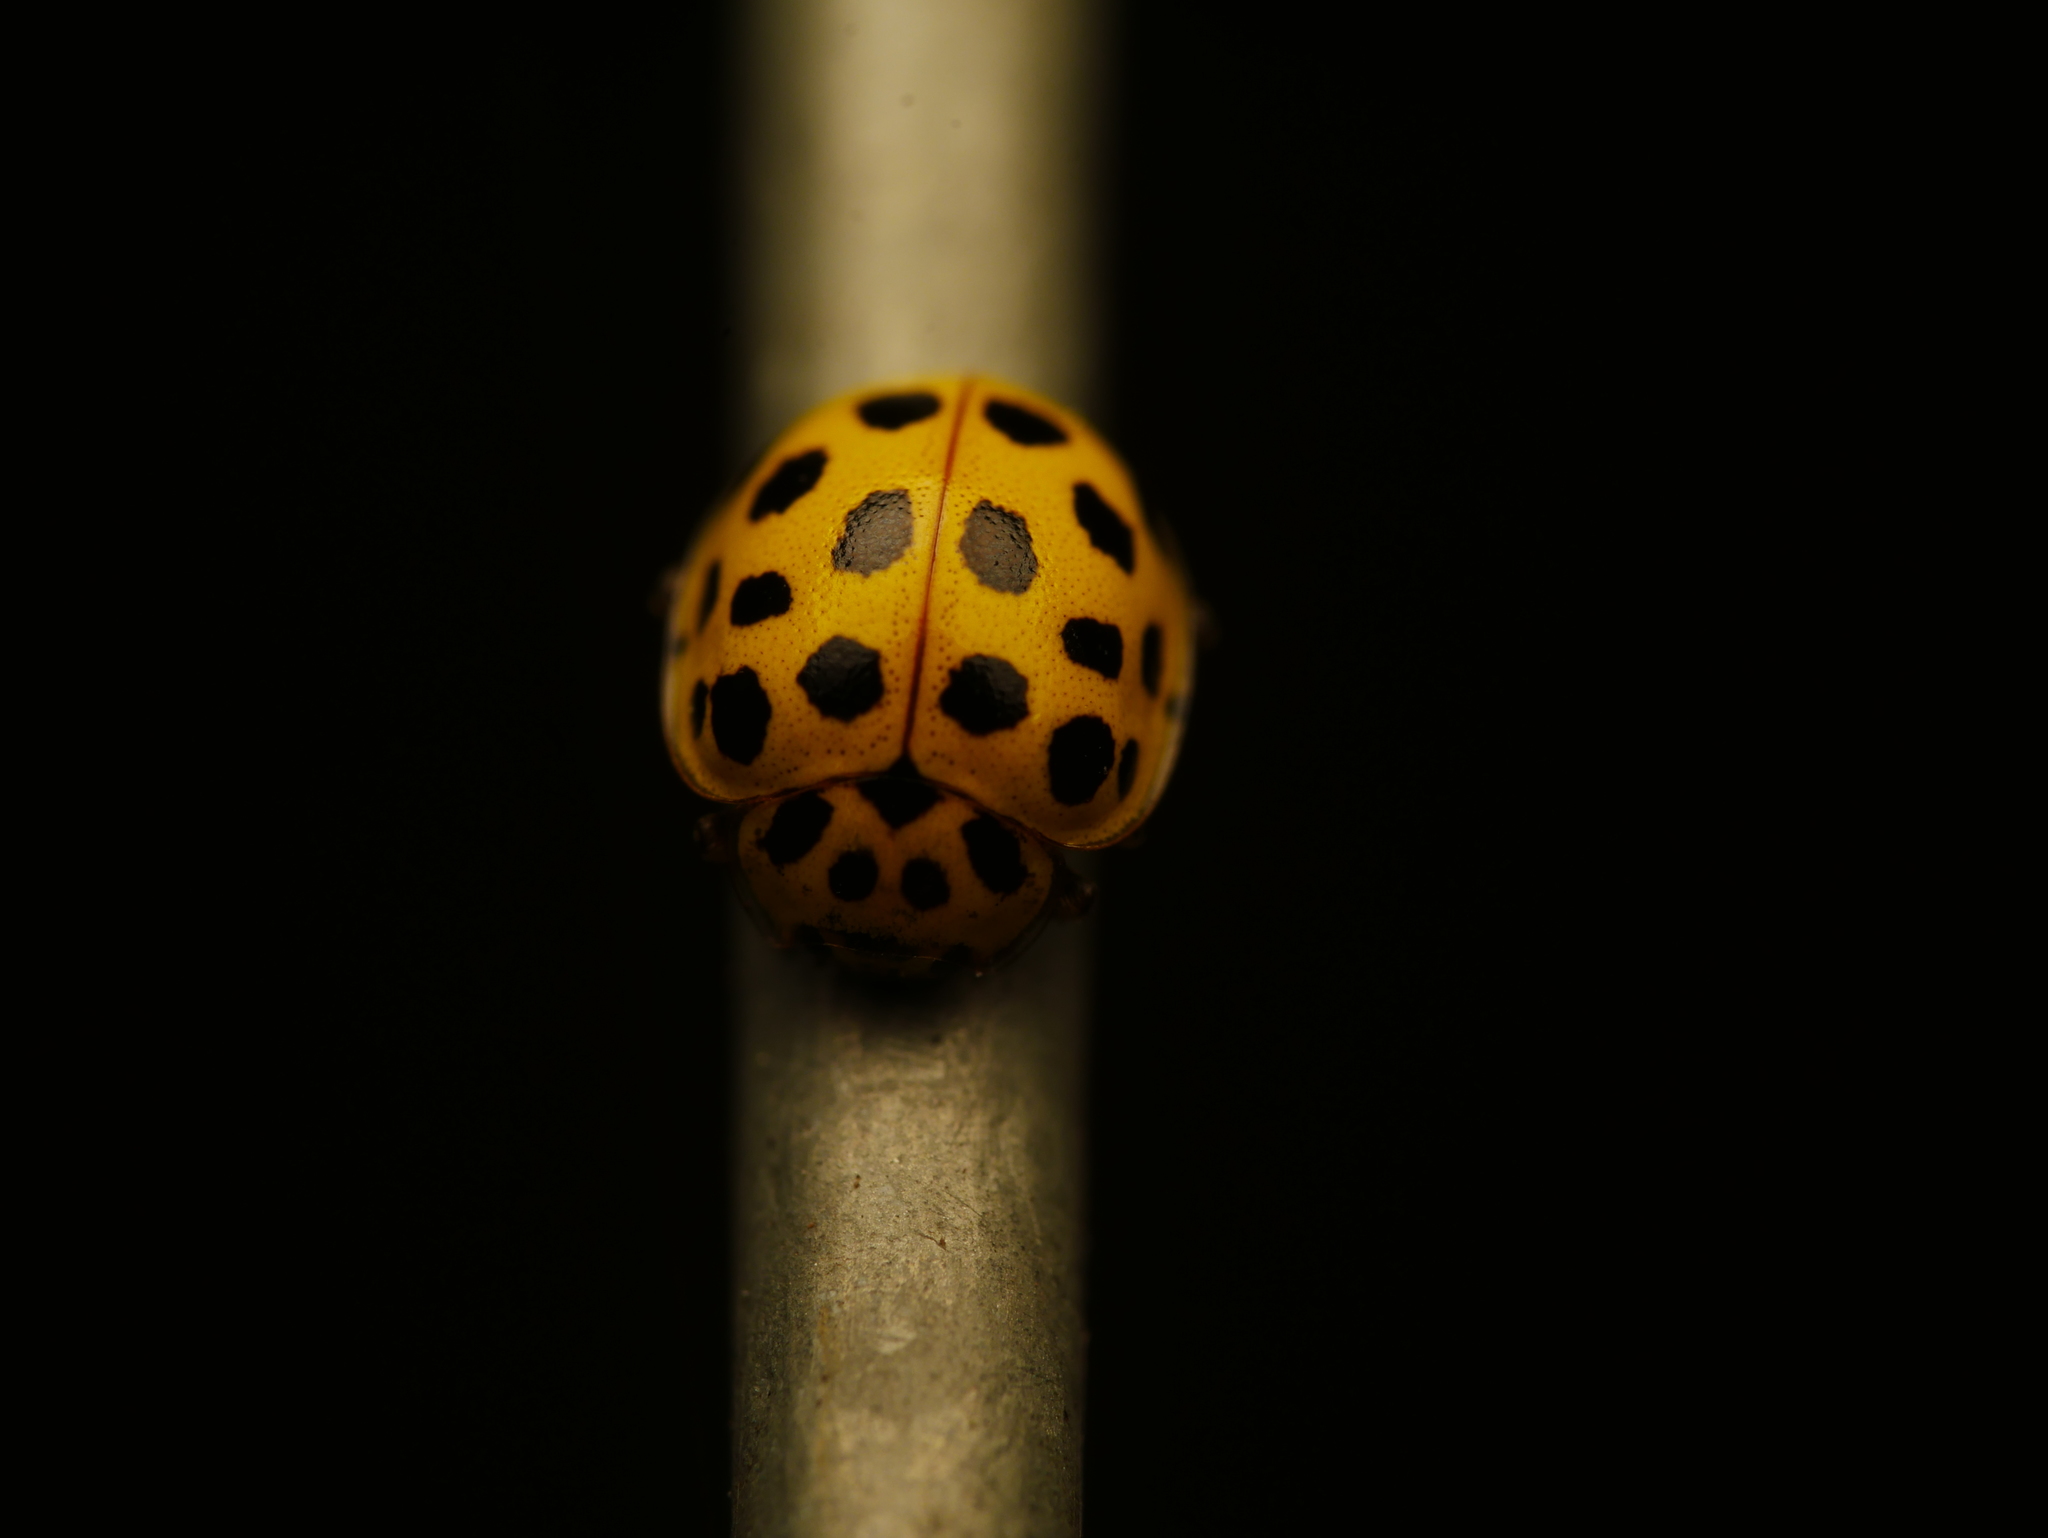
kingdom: Animalia
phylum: Arthropoda
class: Insecta
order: Coleoptera
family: Coccinellidae
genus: Psyllobora
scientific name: Psyllobora vigintiduopunctata
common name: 22-spot ladybird
